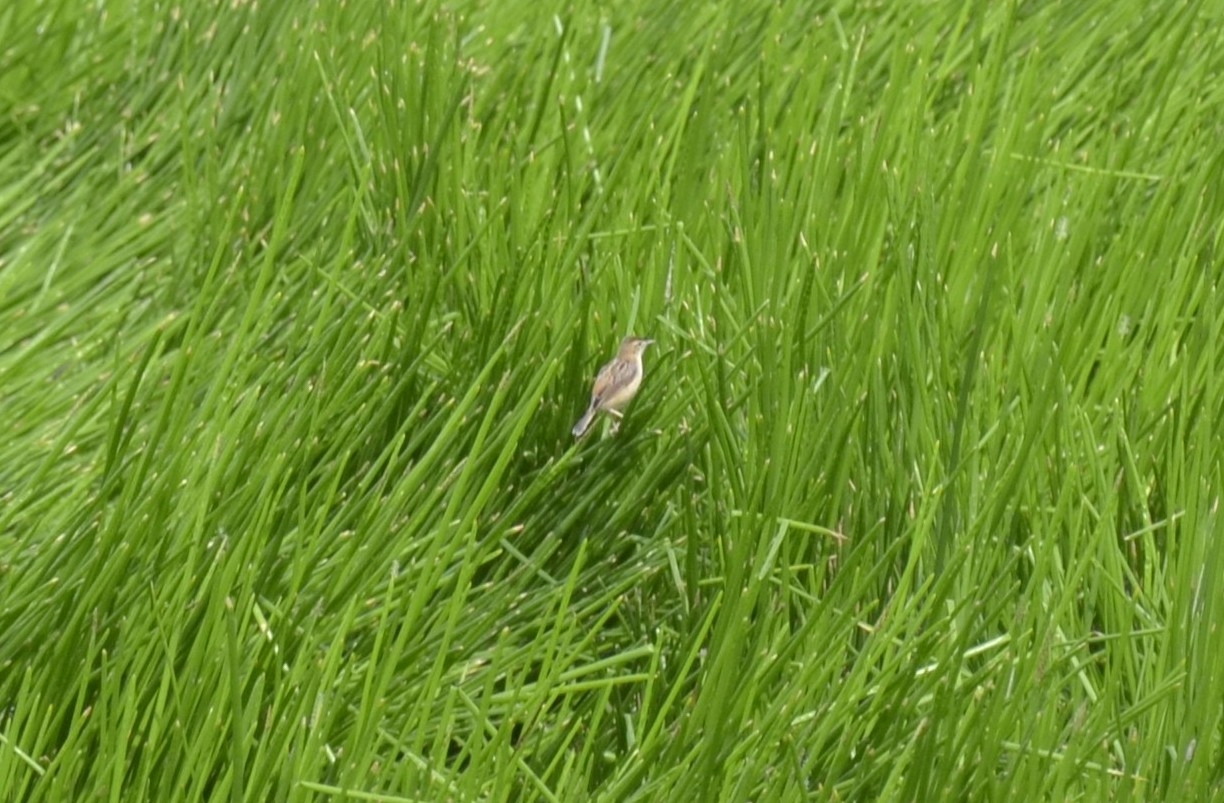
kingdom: Animalia
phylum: Chordata
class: Aves
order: Passeriformes
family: Cisticolidae
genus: Cisticola
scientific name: Cisticola juncidis
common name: Zitting cisticola
